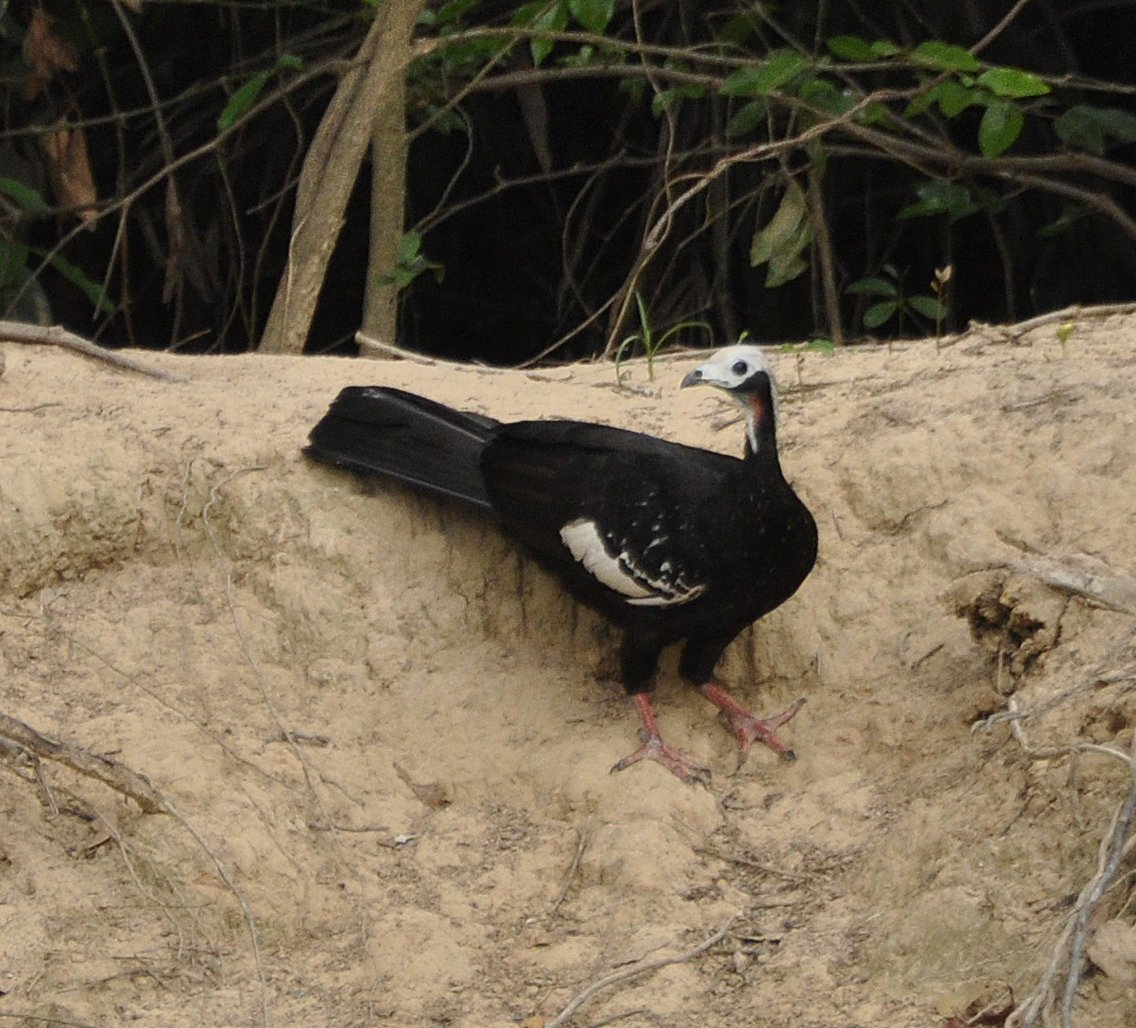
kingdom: Animalia
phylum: Chordata
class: Aves
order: Galliformes
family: Cracidae
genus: Pipile
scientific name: Pipile cumanensis
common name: Blue-throated piping-guan
